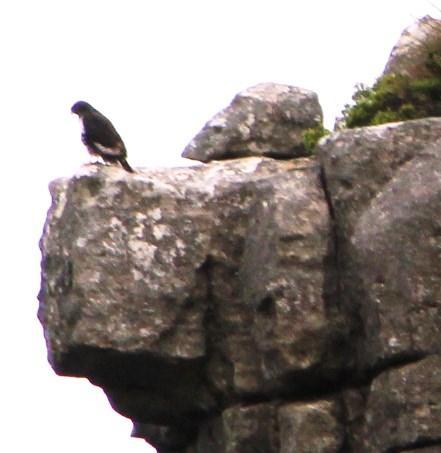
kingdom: Animalia
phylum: Chordata
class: Aves
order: Accipitriformes
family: Accipitridae
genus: Buteo
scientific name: Buteo rufofuscus
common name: Jackal buzzard
